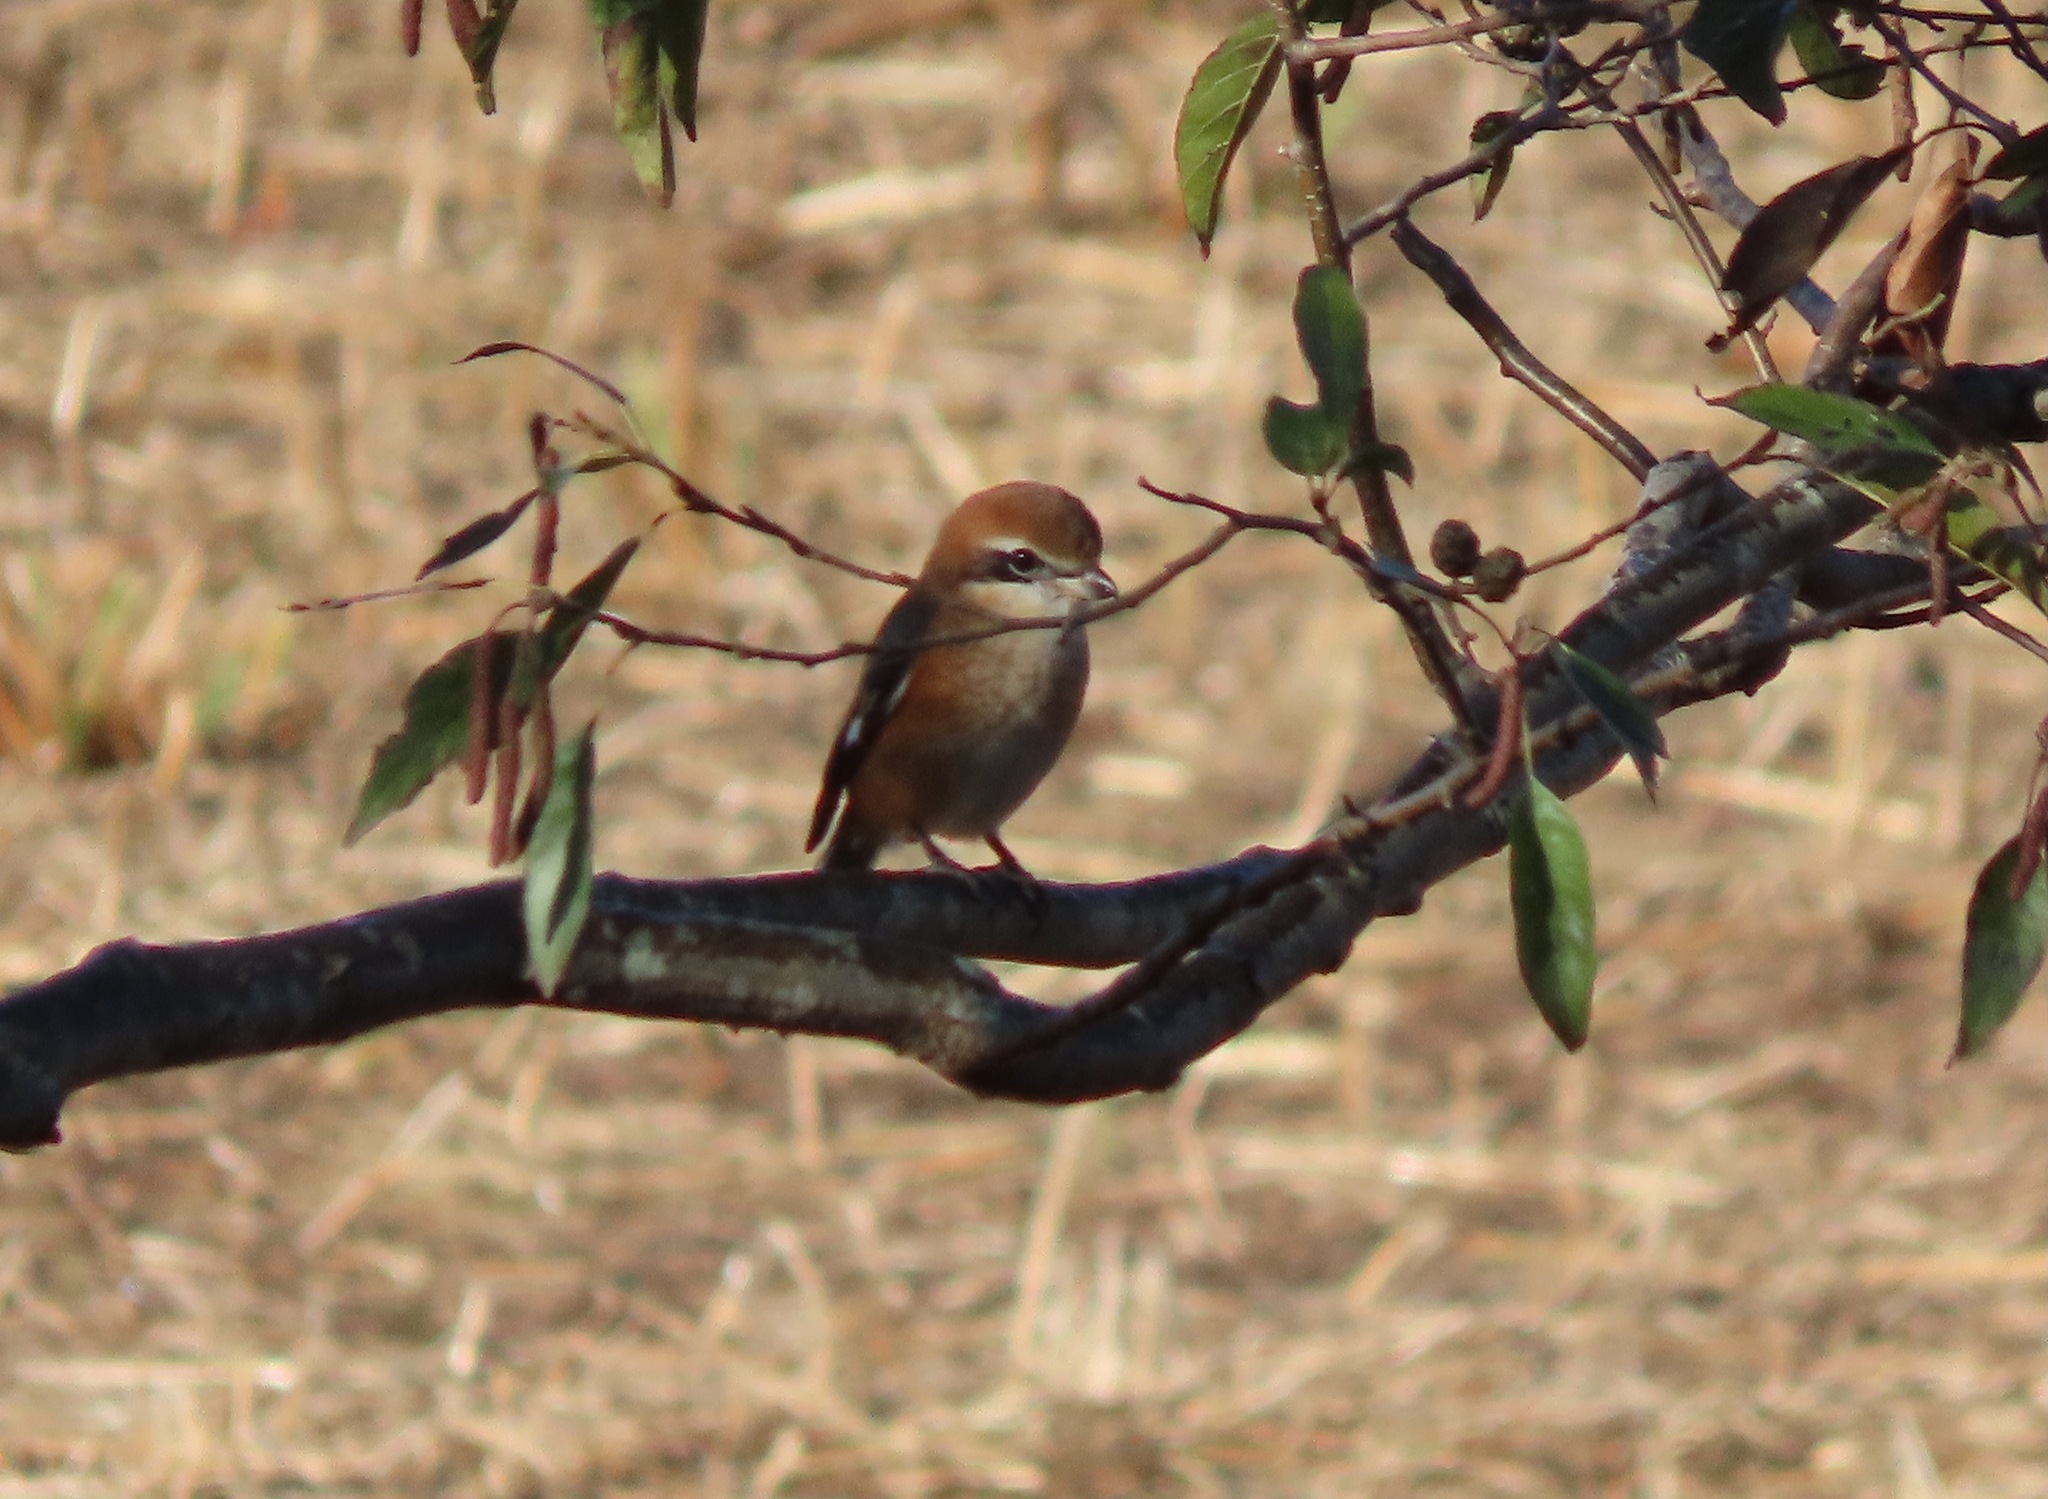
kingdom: Animalia
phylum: Chordata
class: Aves
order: Passeriformes
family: Laniidae
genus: Lanius
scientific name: Lanius bucephalus
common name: Bull-headed shrike
